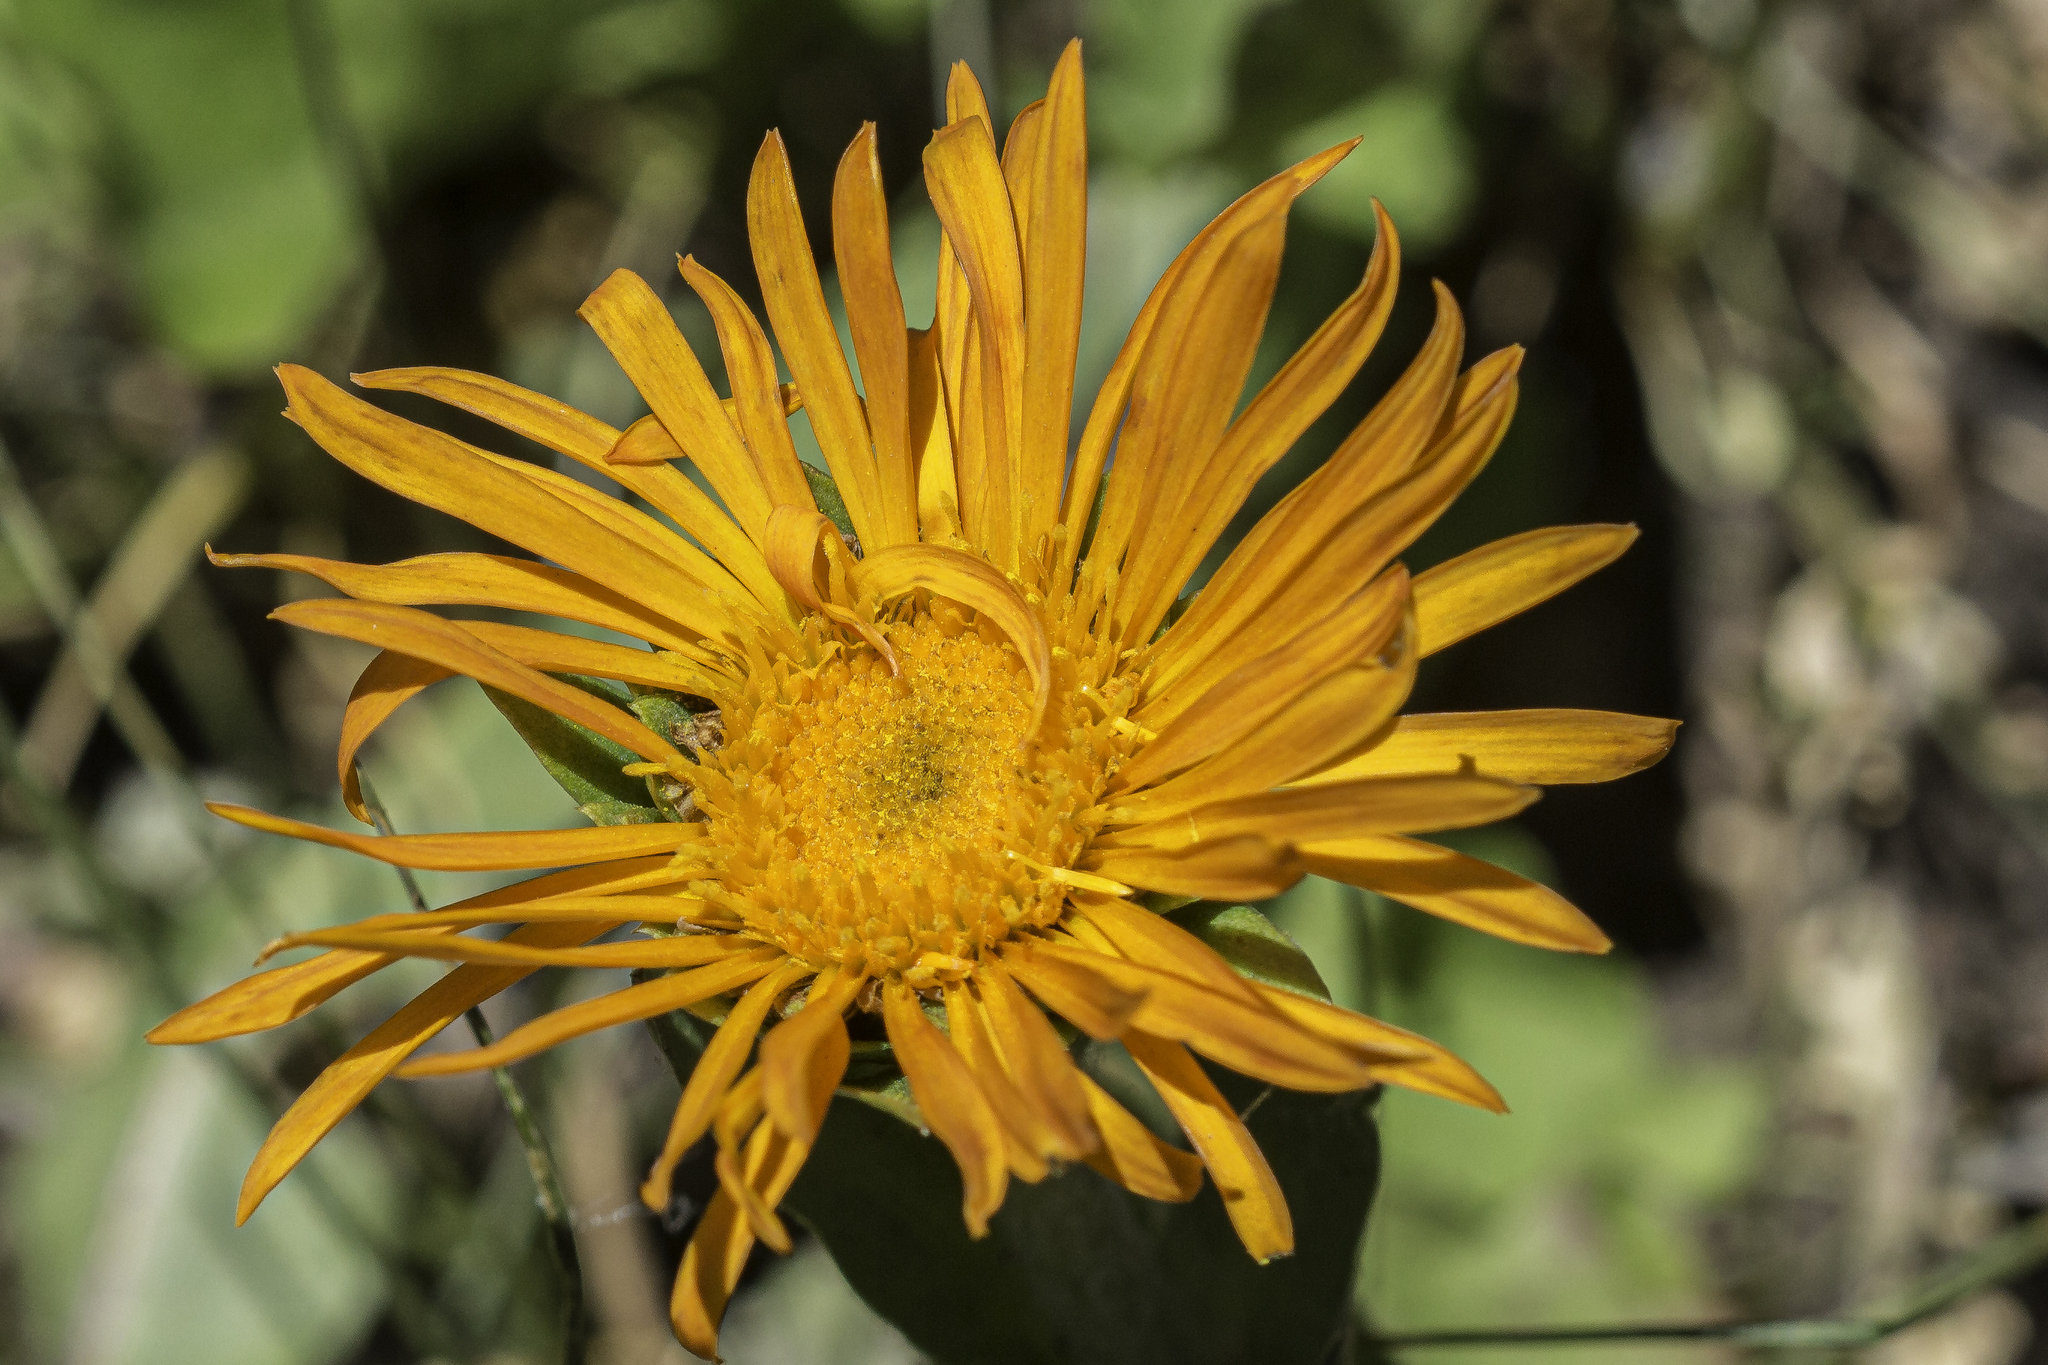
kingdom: Plantae
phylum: Tracheophyta
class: Magnoliopsida
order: Asterales
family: Asteraceae
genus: Pyrrocoma
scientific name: Pyrrocoma crocea
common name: Curly-head goldenweed
